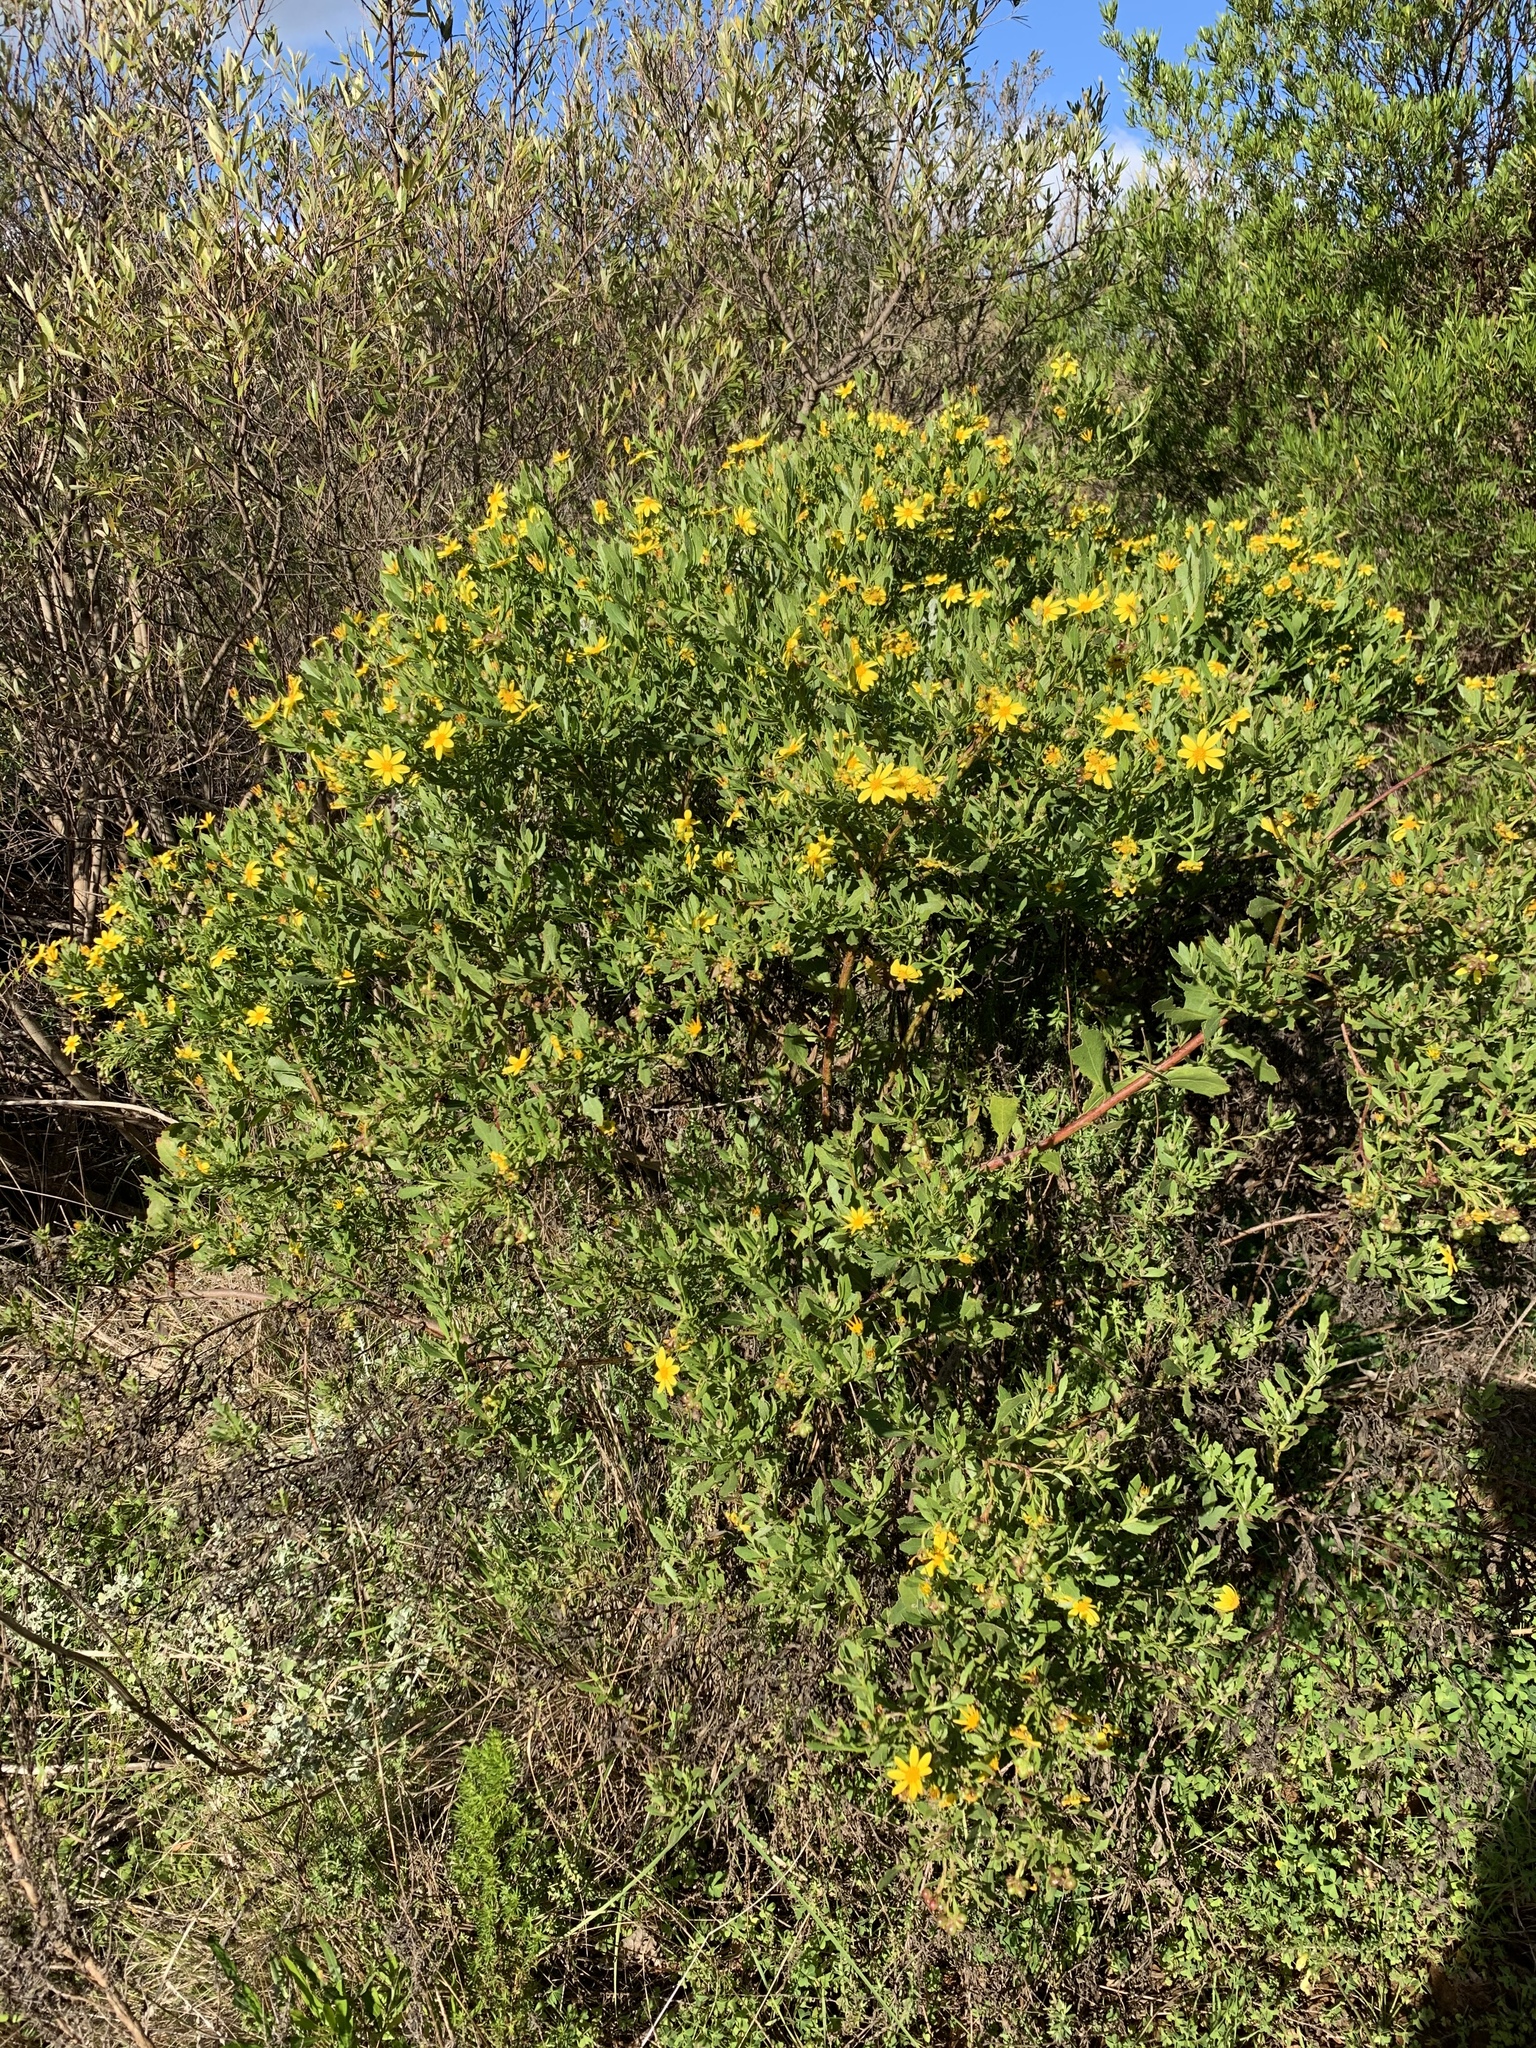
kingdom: Plantae
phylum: Tracheophyta
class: Magnoliopsida
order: Asterales
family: Asteraceae
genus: Osteospermum
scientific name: Osteospermum moniliferum
